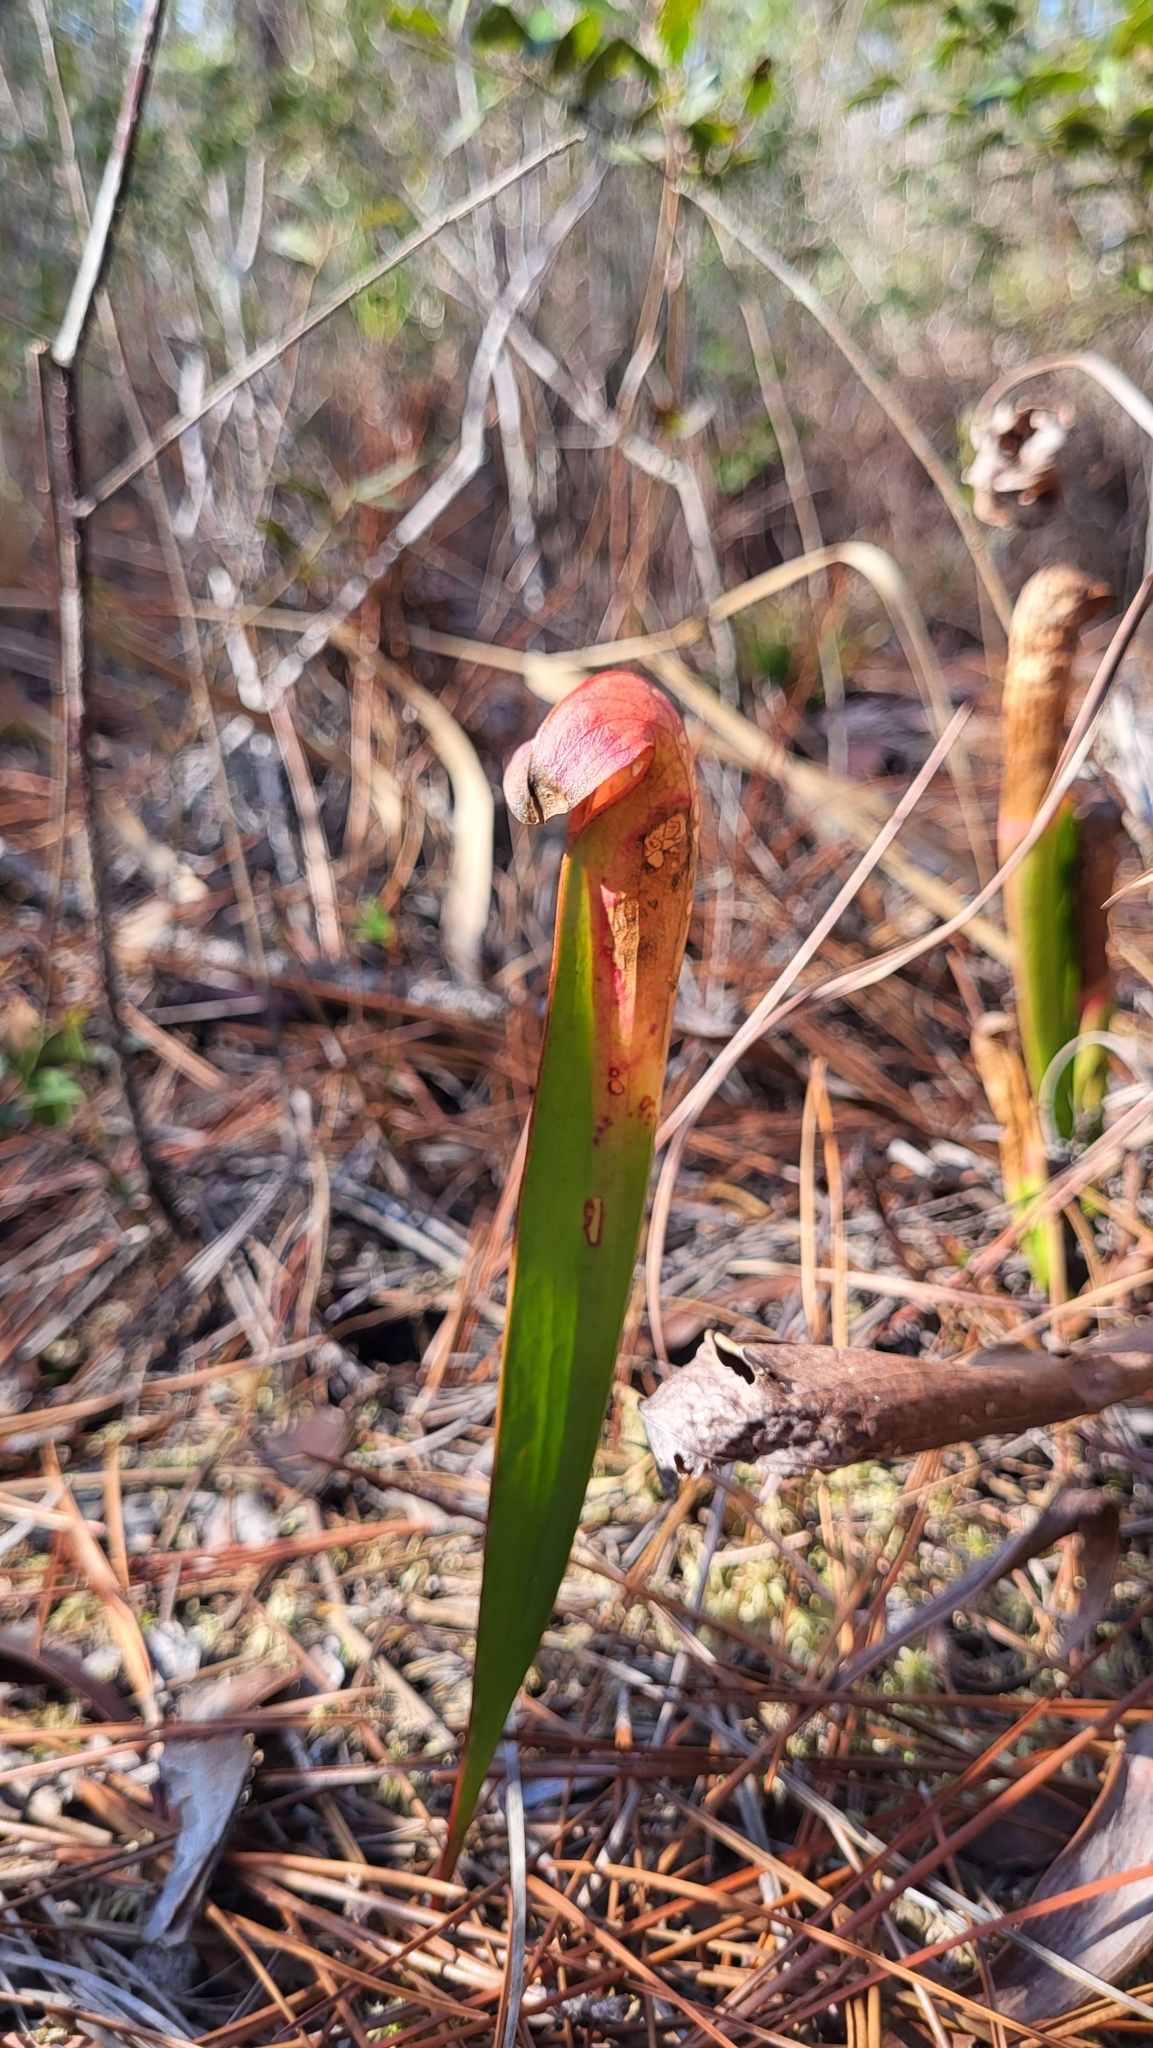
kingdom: Plantae
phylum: Tracheophyta
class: Magnoliopsida
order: Ericales
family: Sarraceniaceae
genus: Sarracenia
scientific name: Sarracenia minor
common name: Rainhat-trumpet
